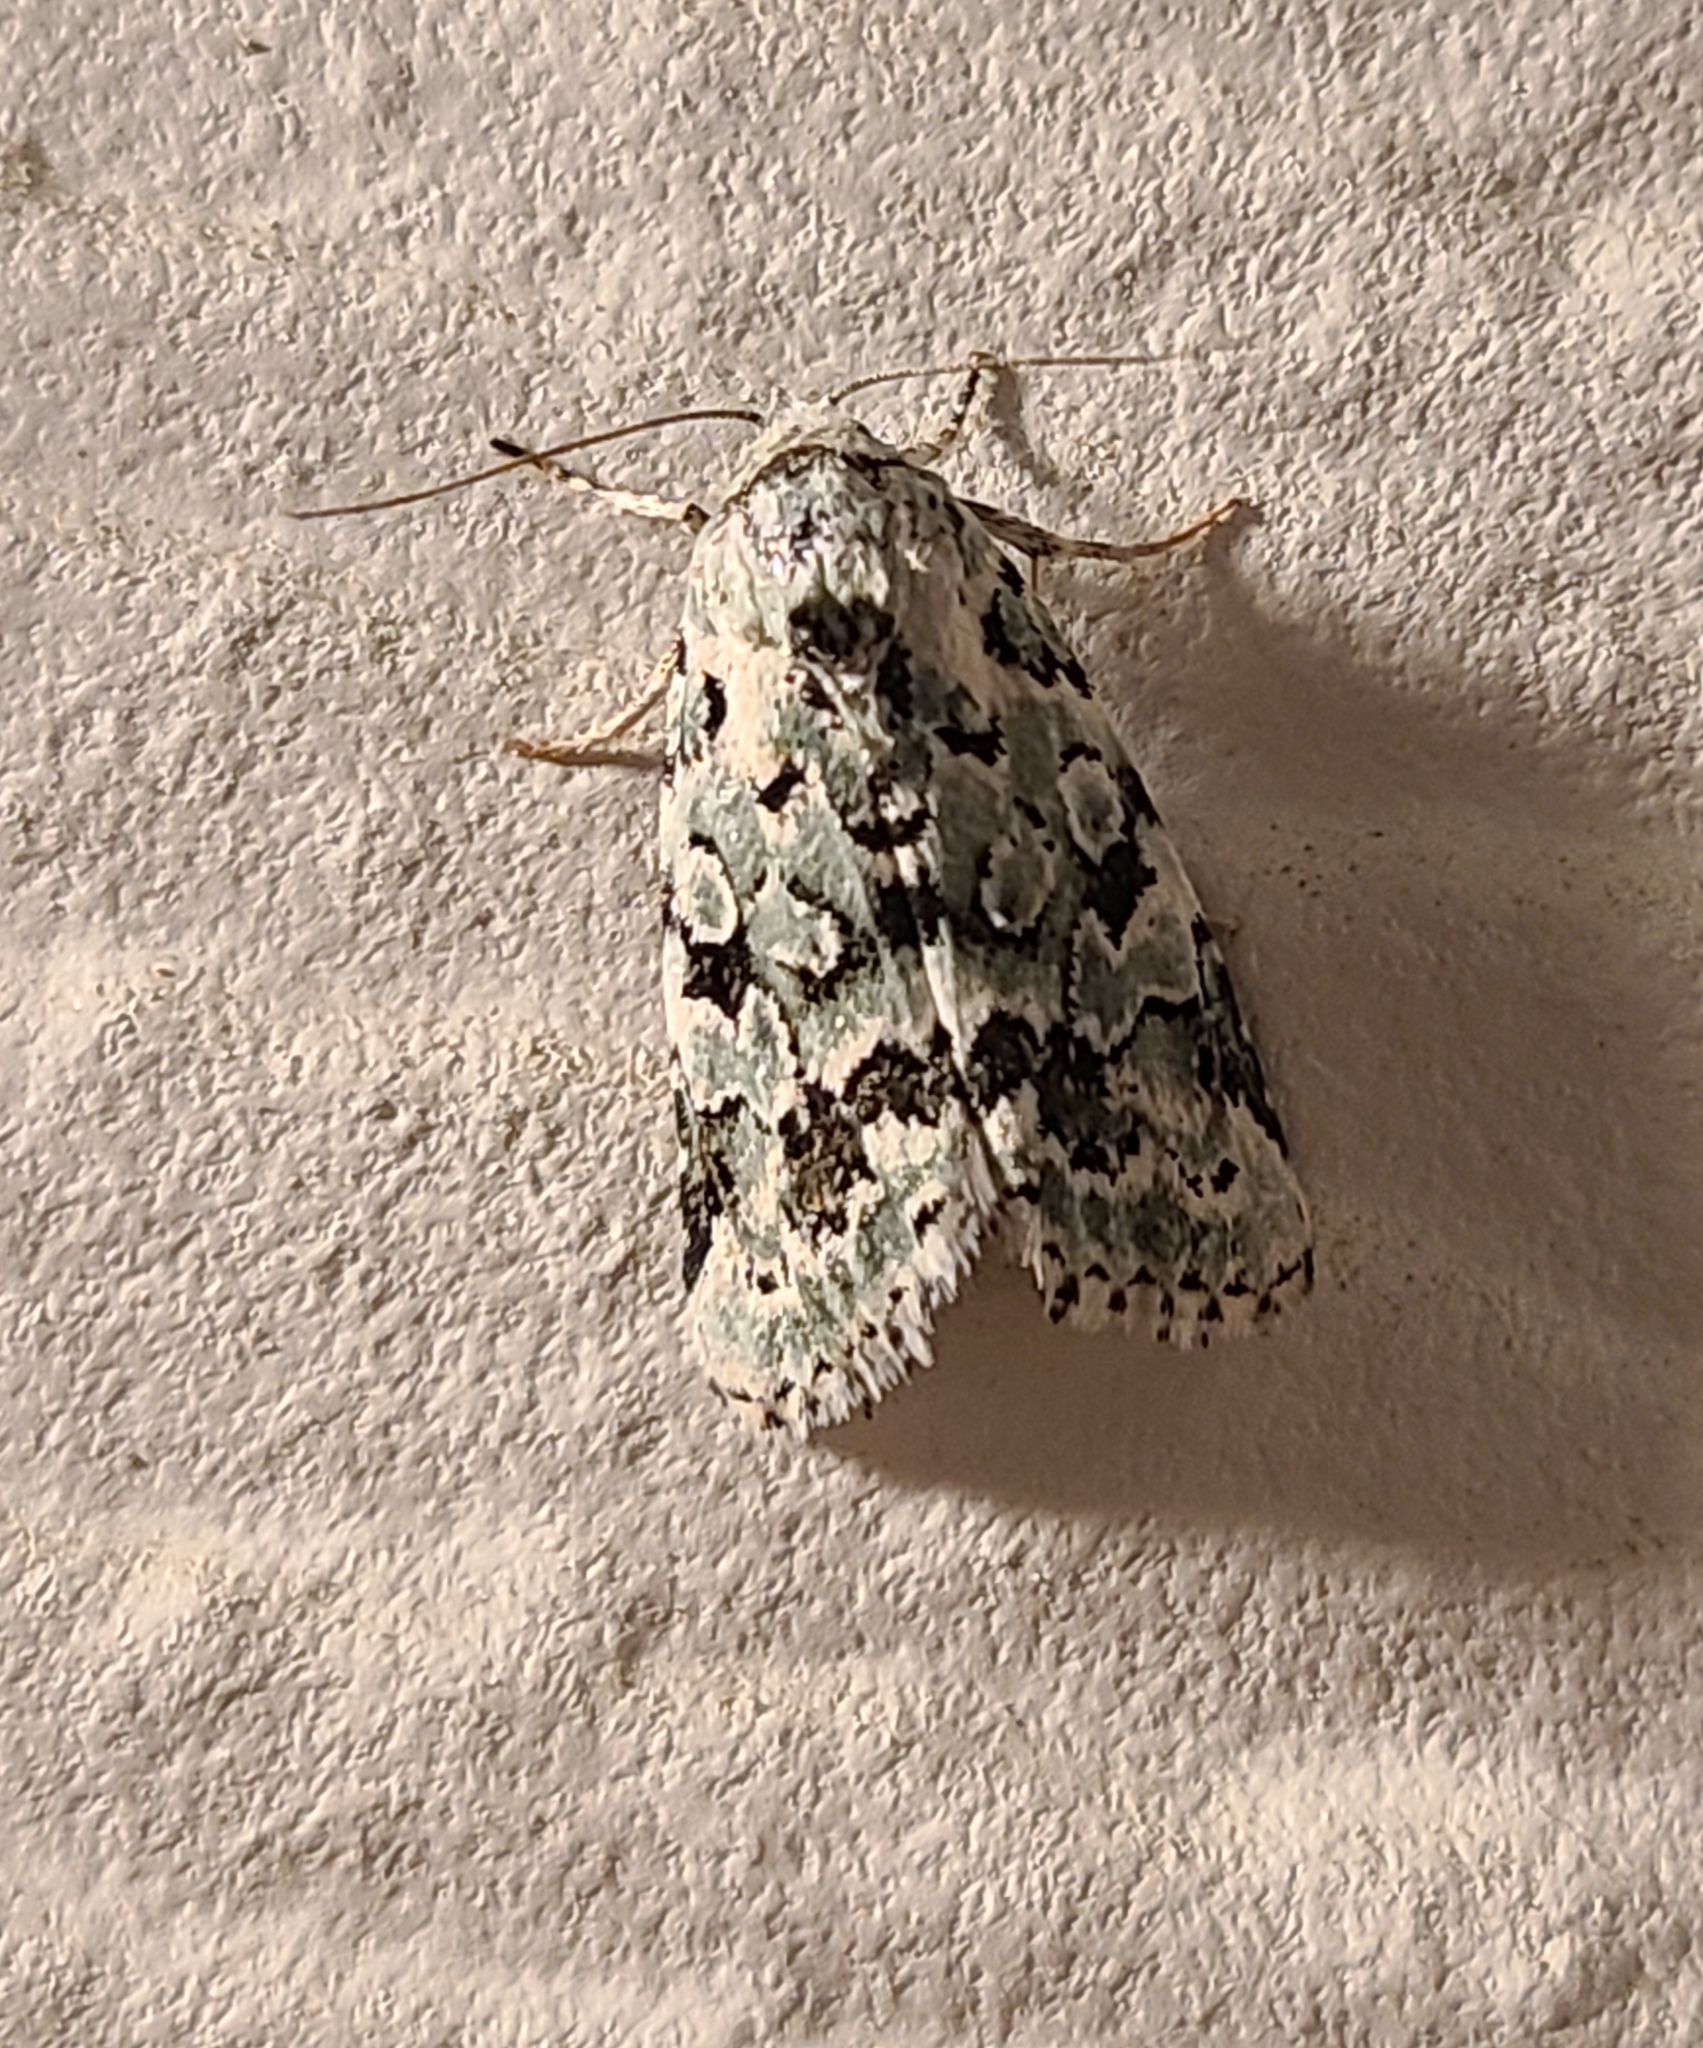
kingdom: Animalia
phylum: Arthropoda
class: Insecta
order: Lepidoptera
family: Noctuidae
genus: Bryolymnia
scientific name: Bryolymnia viridata
